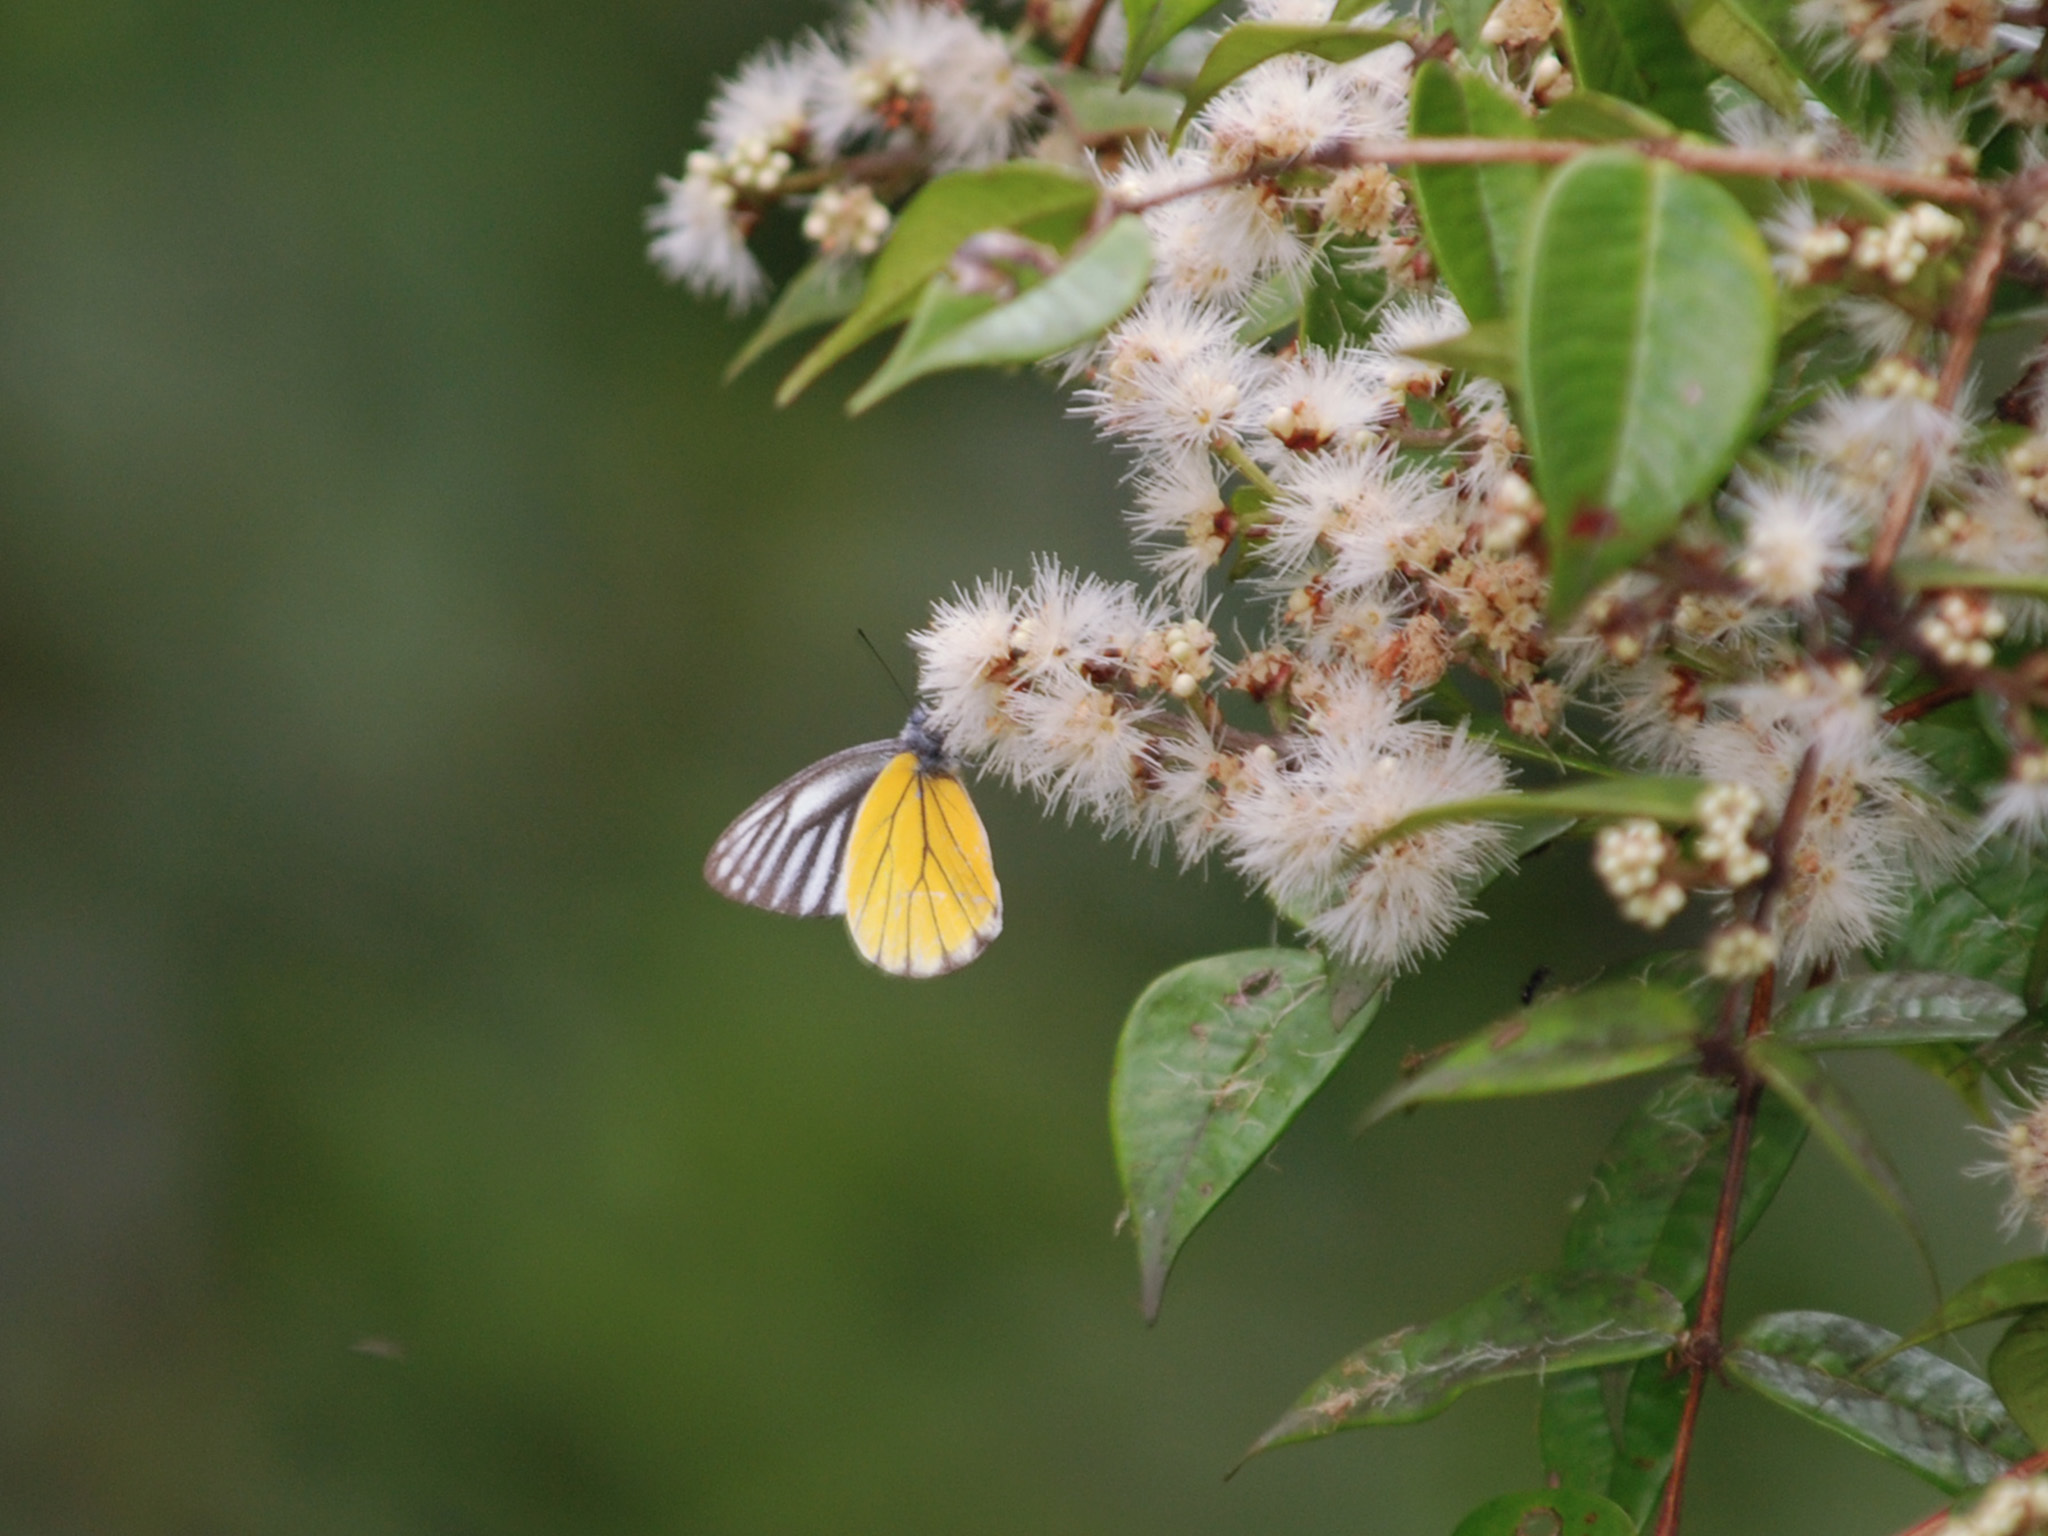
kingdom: Animalia
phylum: Arthropoda
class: Insecta
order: Lepidoptera
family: Pieridae
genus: Delias
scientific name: Delias baracasa
